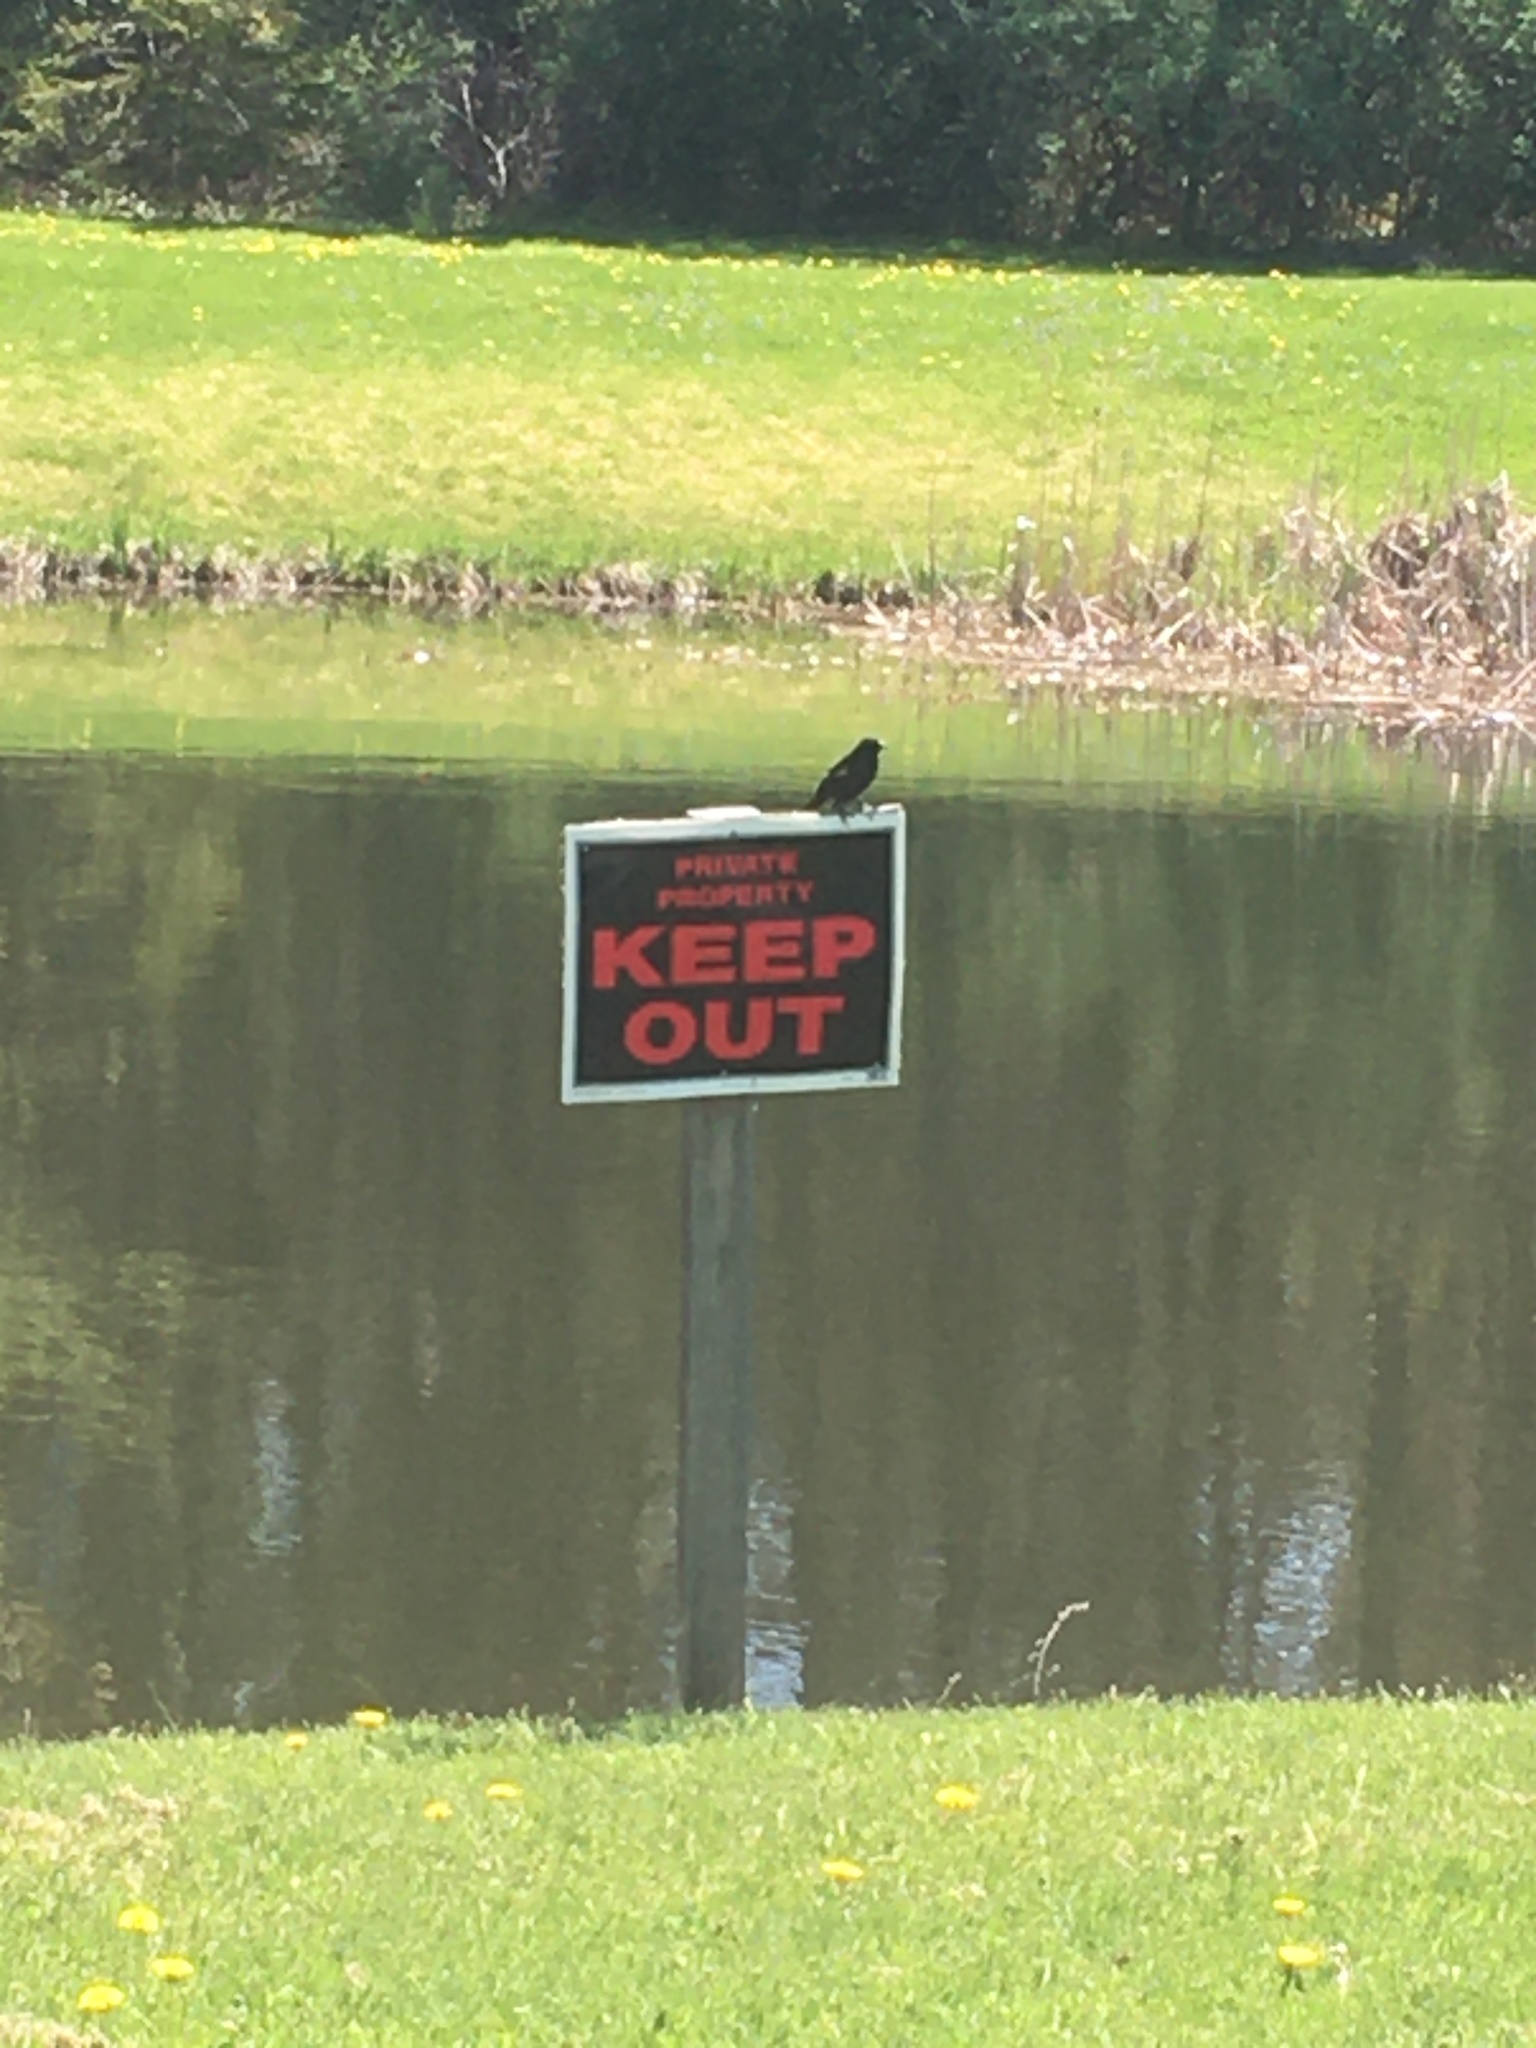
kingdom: Animalia
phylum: Chordata
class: Aves
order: Passeriformes
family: Icteridae
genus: Agelaius
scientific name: Agelaius phoeniceus
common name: Red-winged blackbird
